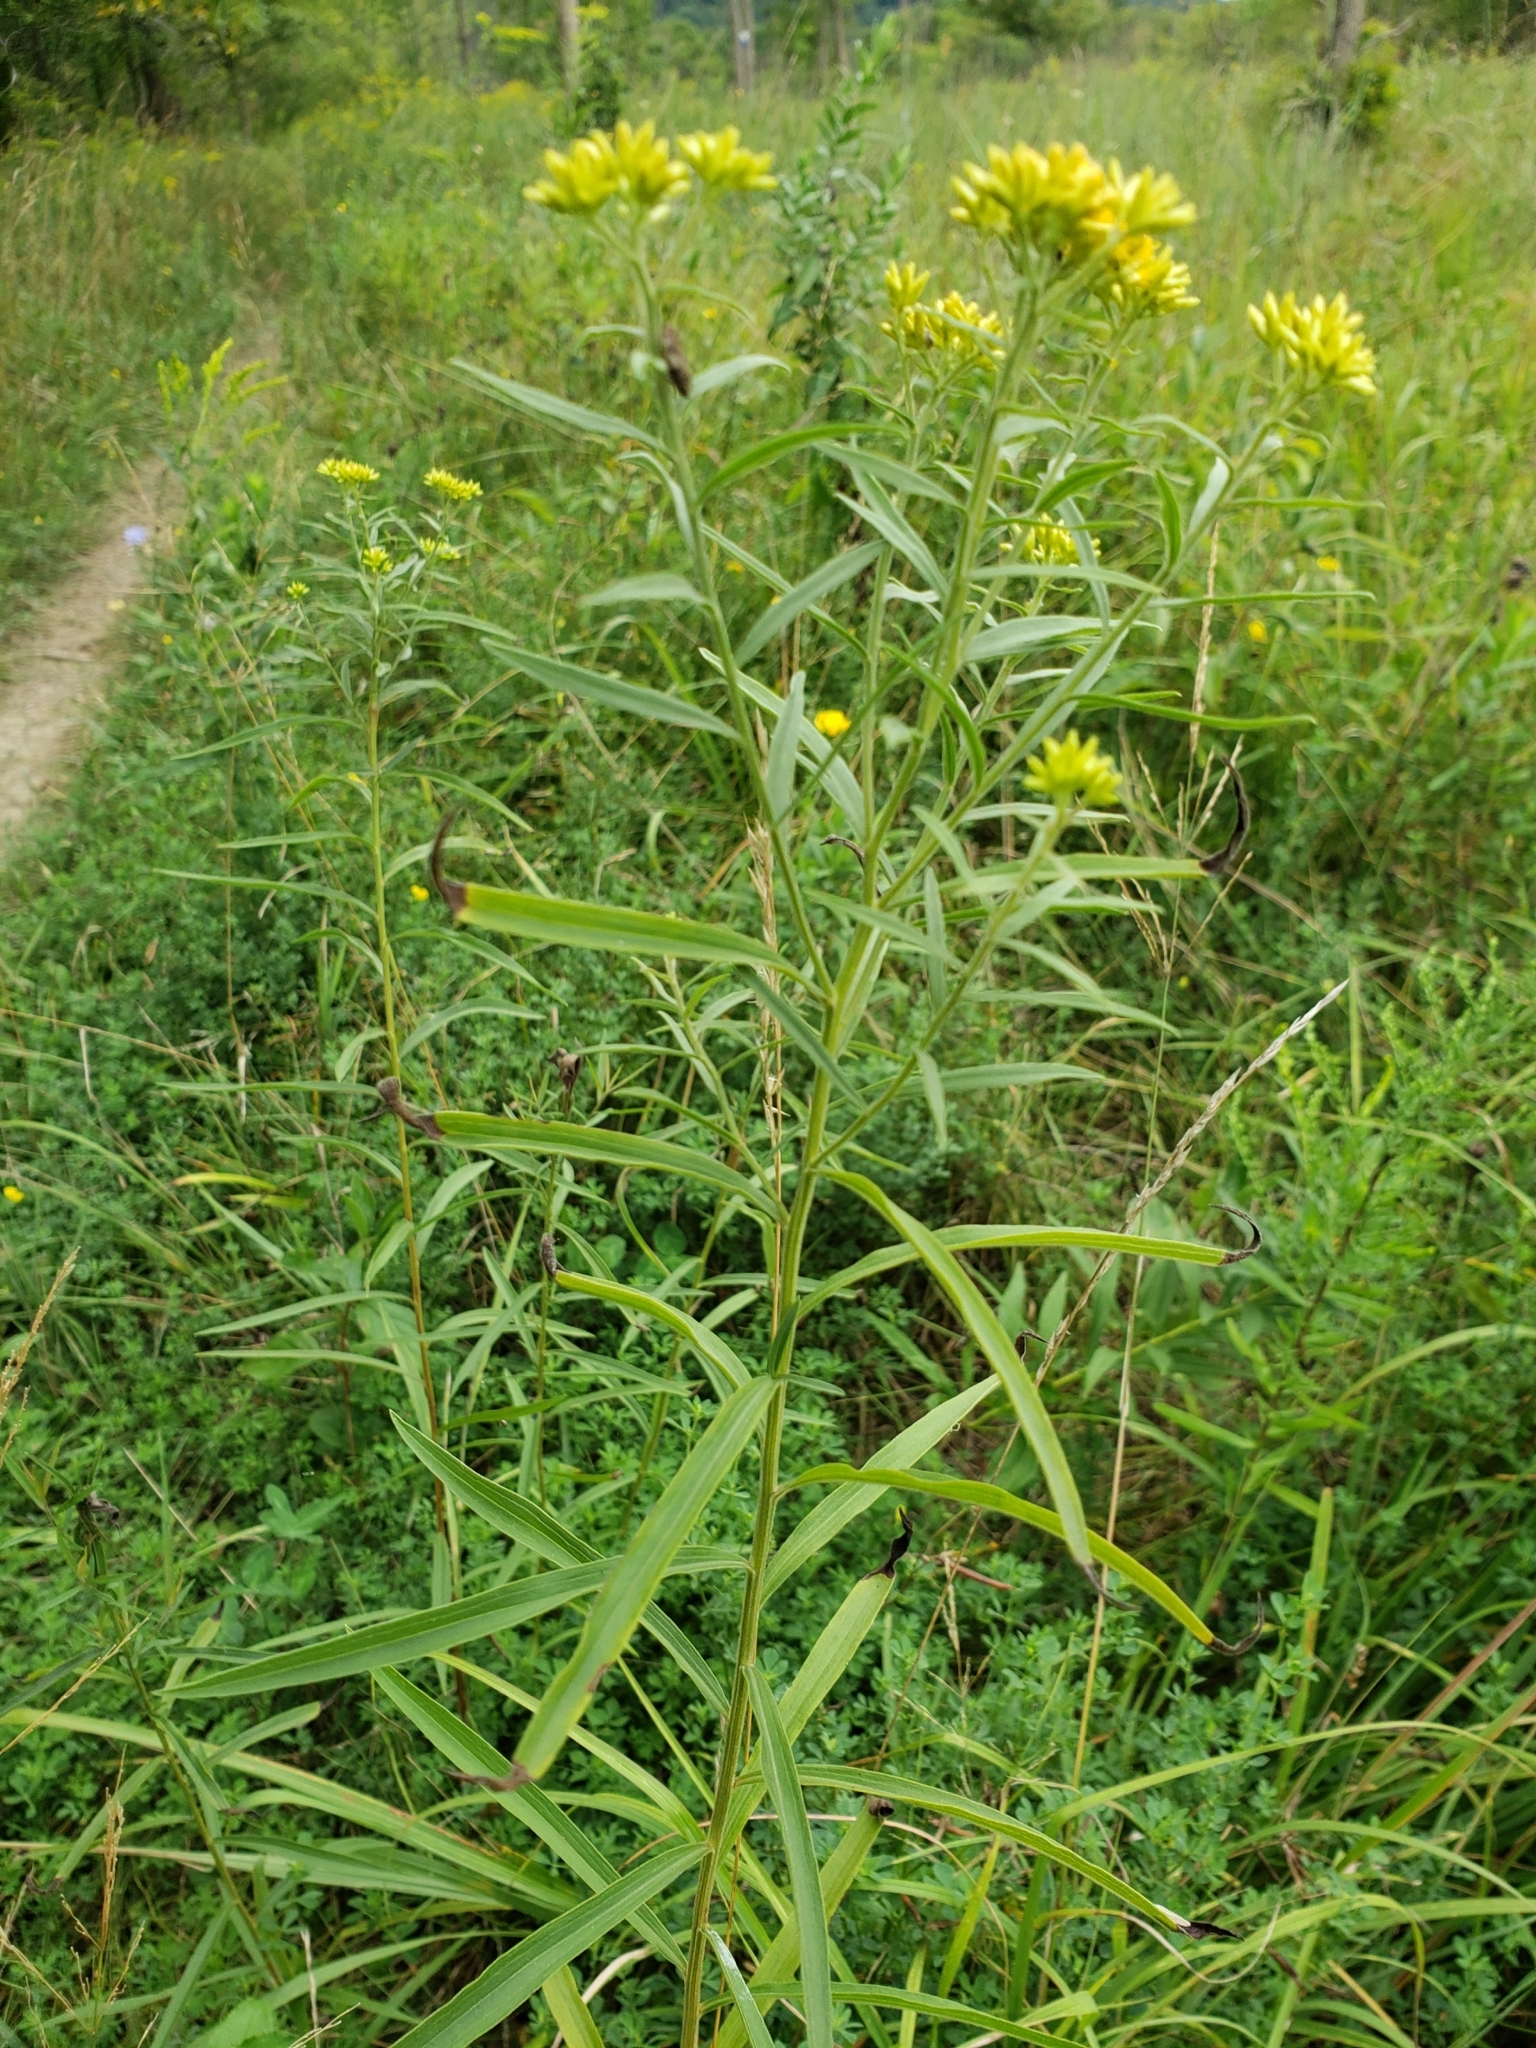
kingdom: Plantae
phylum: Tracheophyta
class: Magnoliopsida
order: Asterales
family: Asteraceae
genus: Euthamia
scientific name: Euthamia graminifolia
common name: Common goldentop
